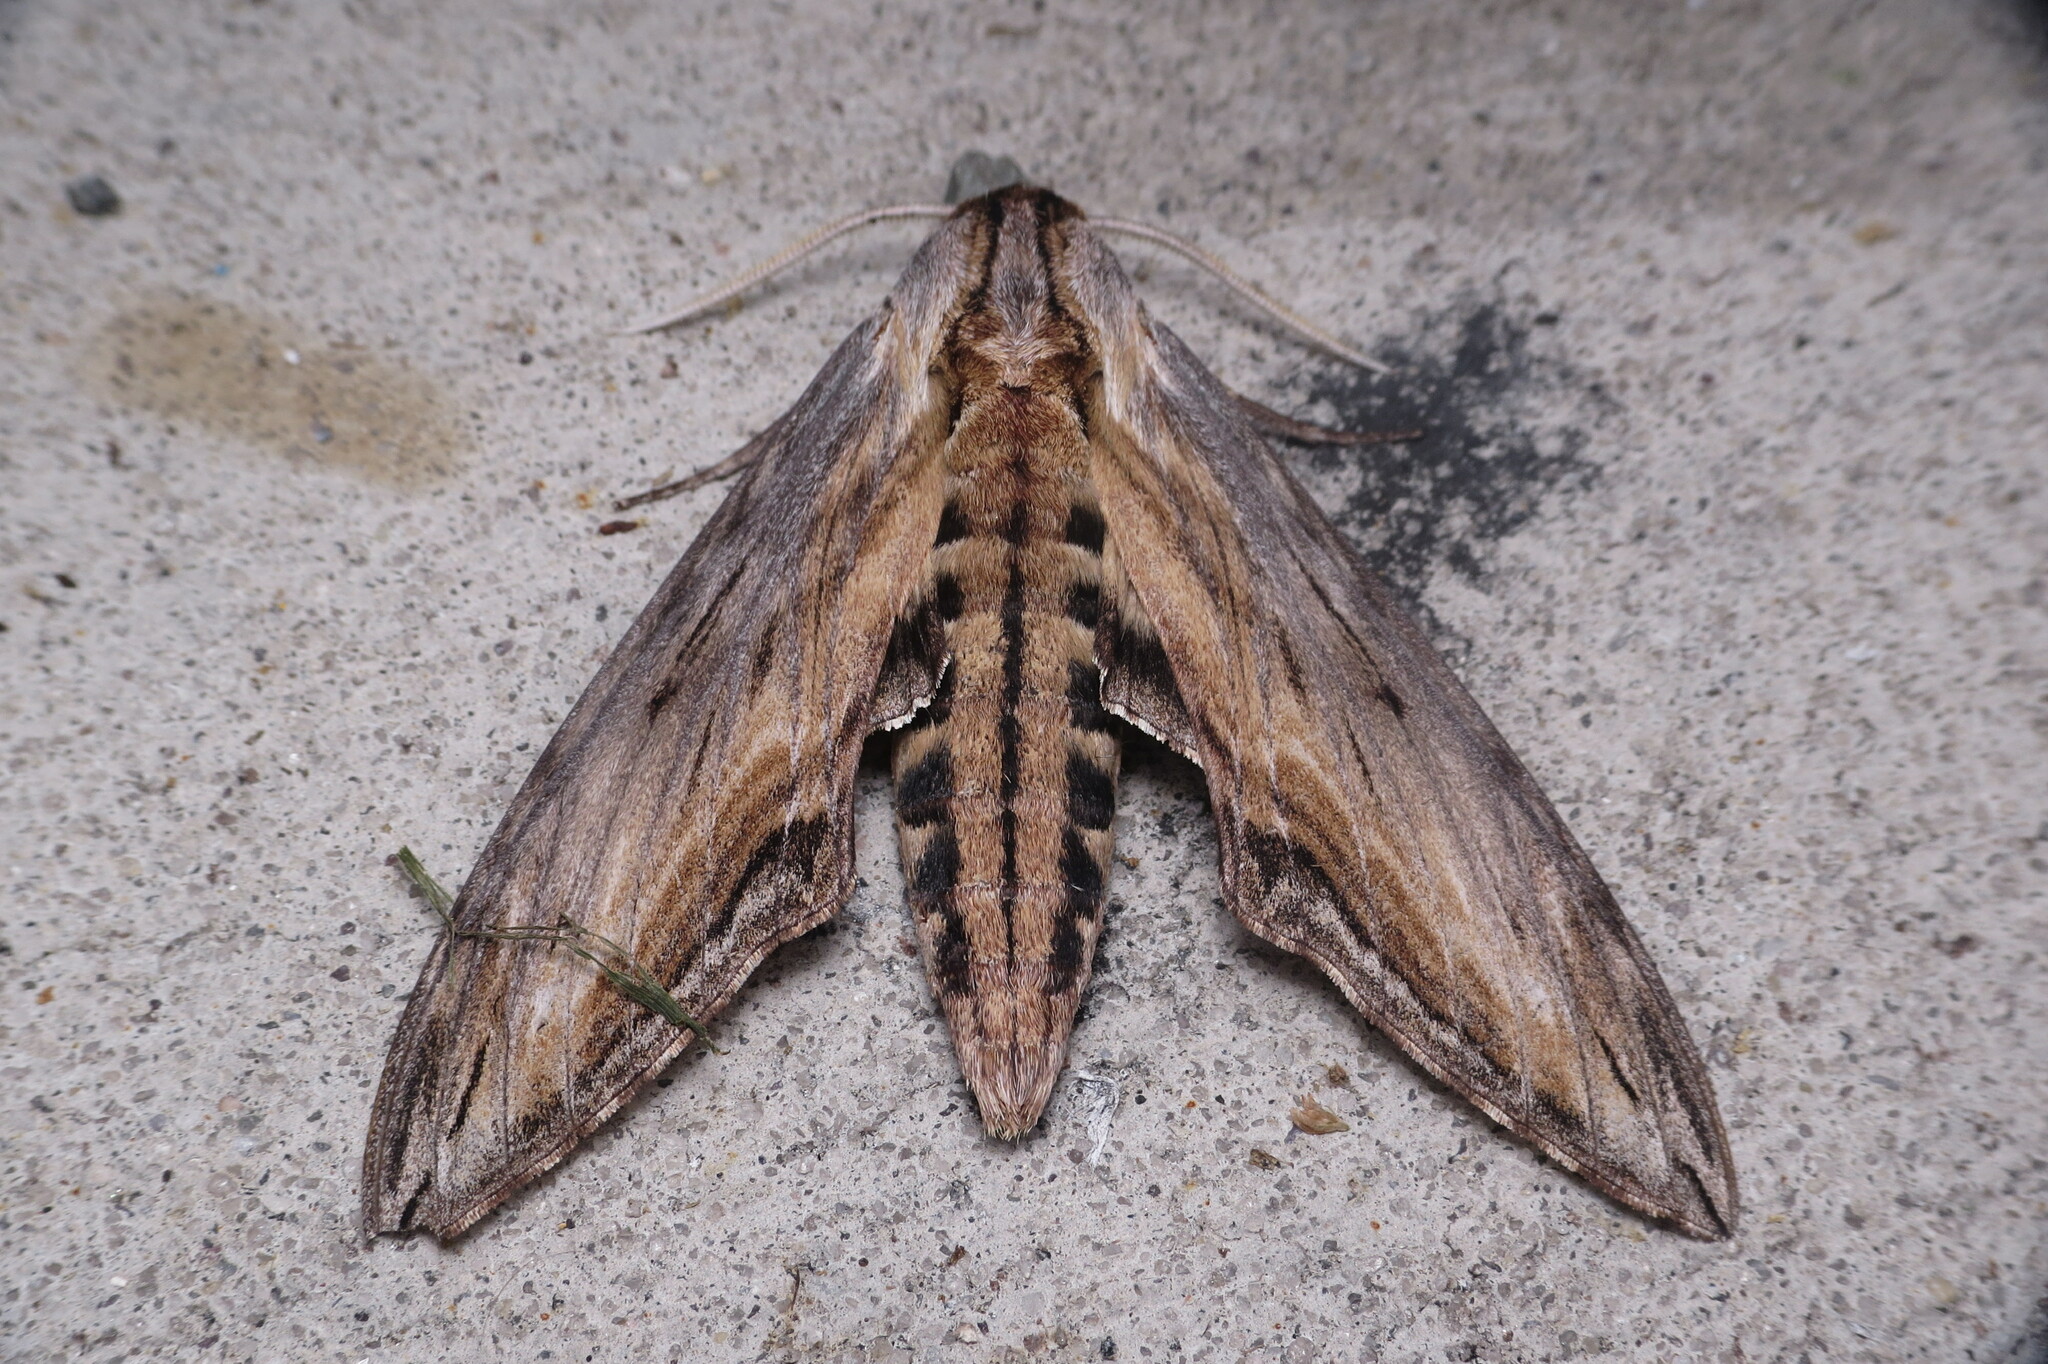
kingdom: Animalia
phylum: Arthropoda
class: Insecta
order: Lepidoptera
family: Sphingidae
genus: Sphinx
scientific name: Sphinx franckii
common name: Franck's sphinx
